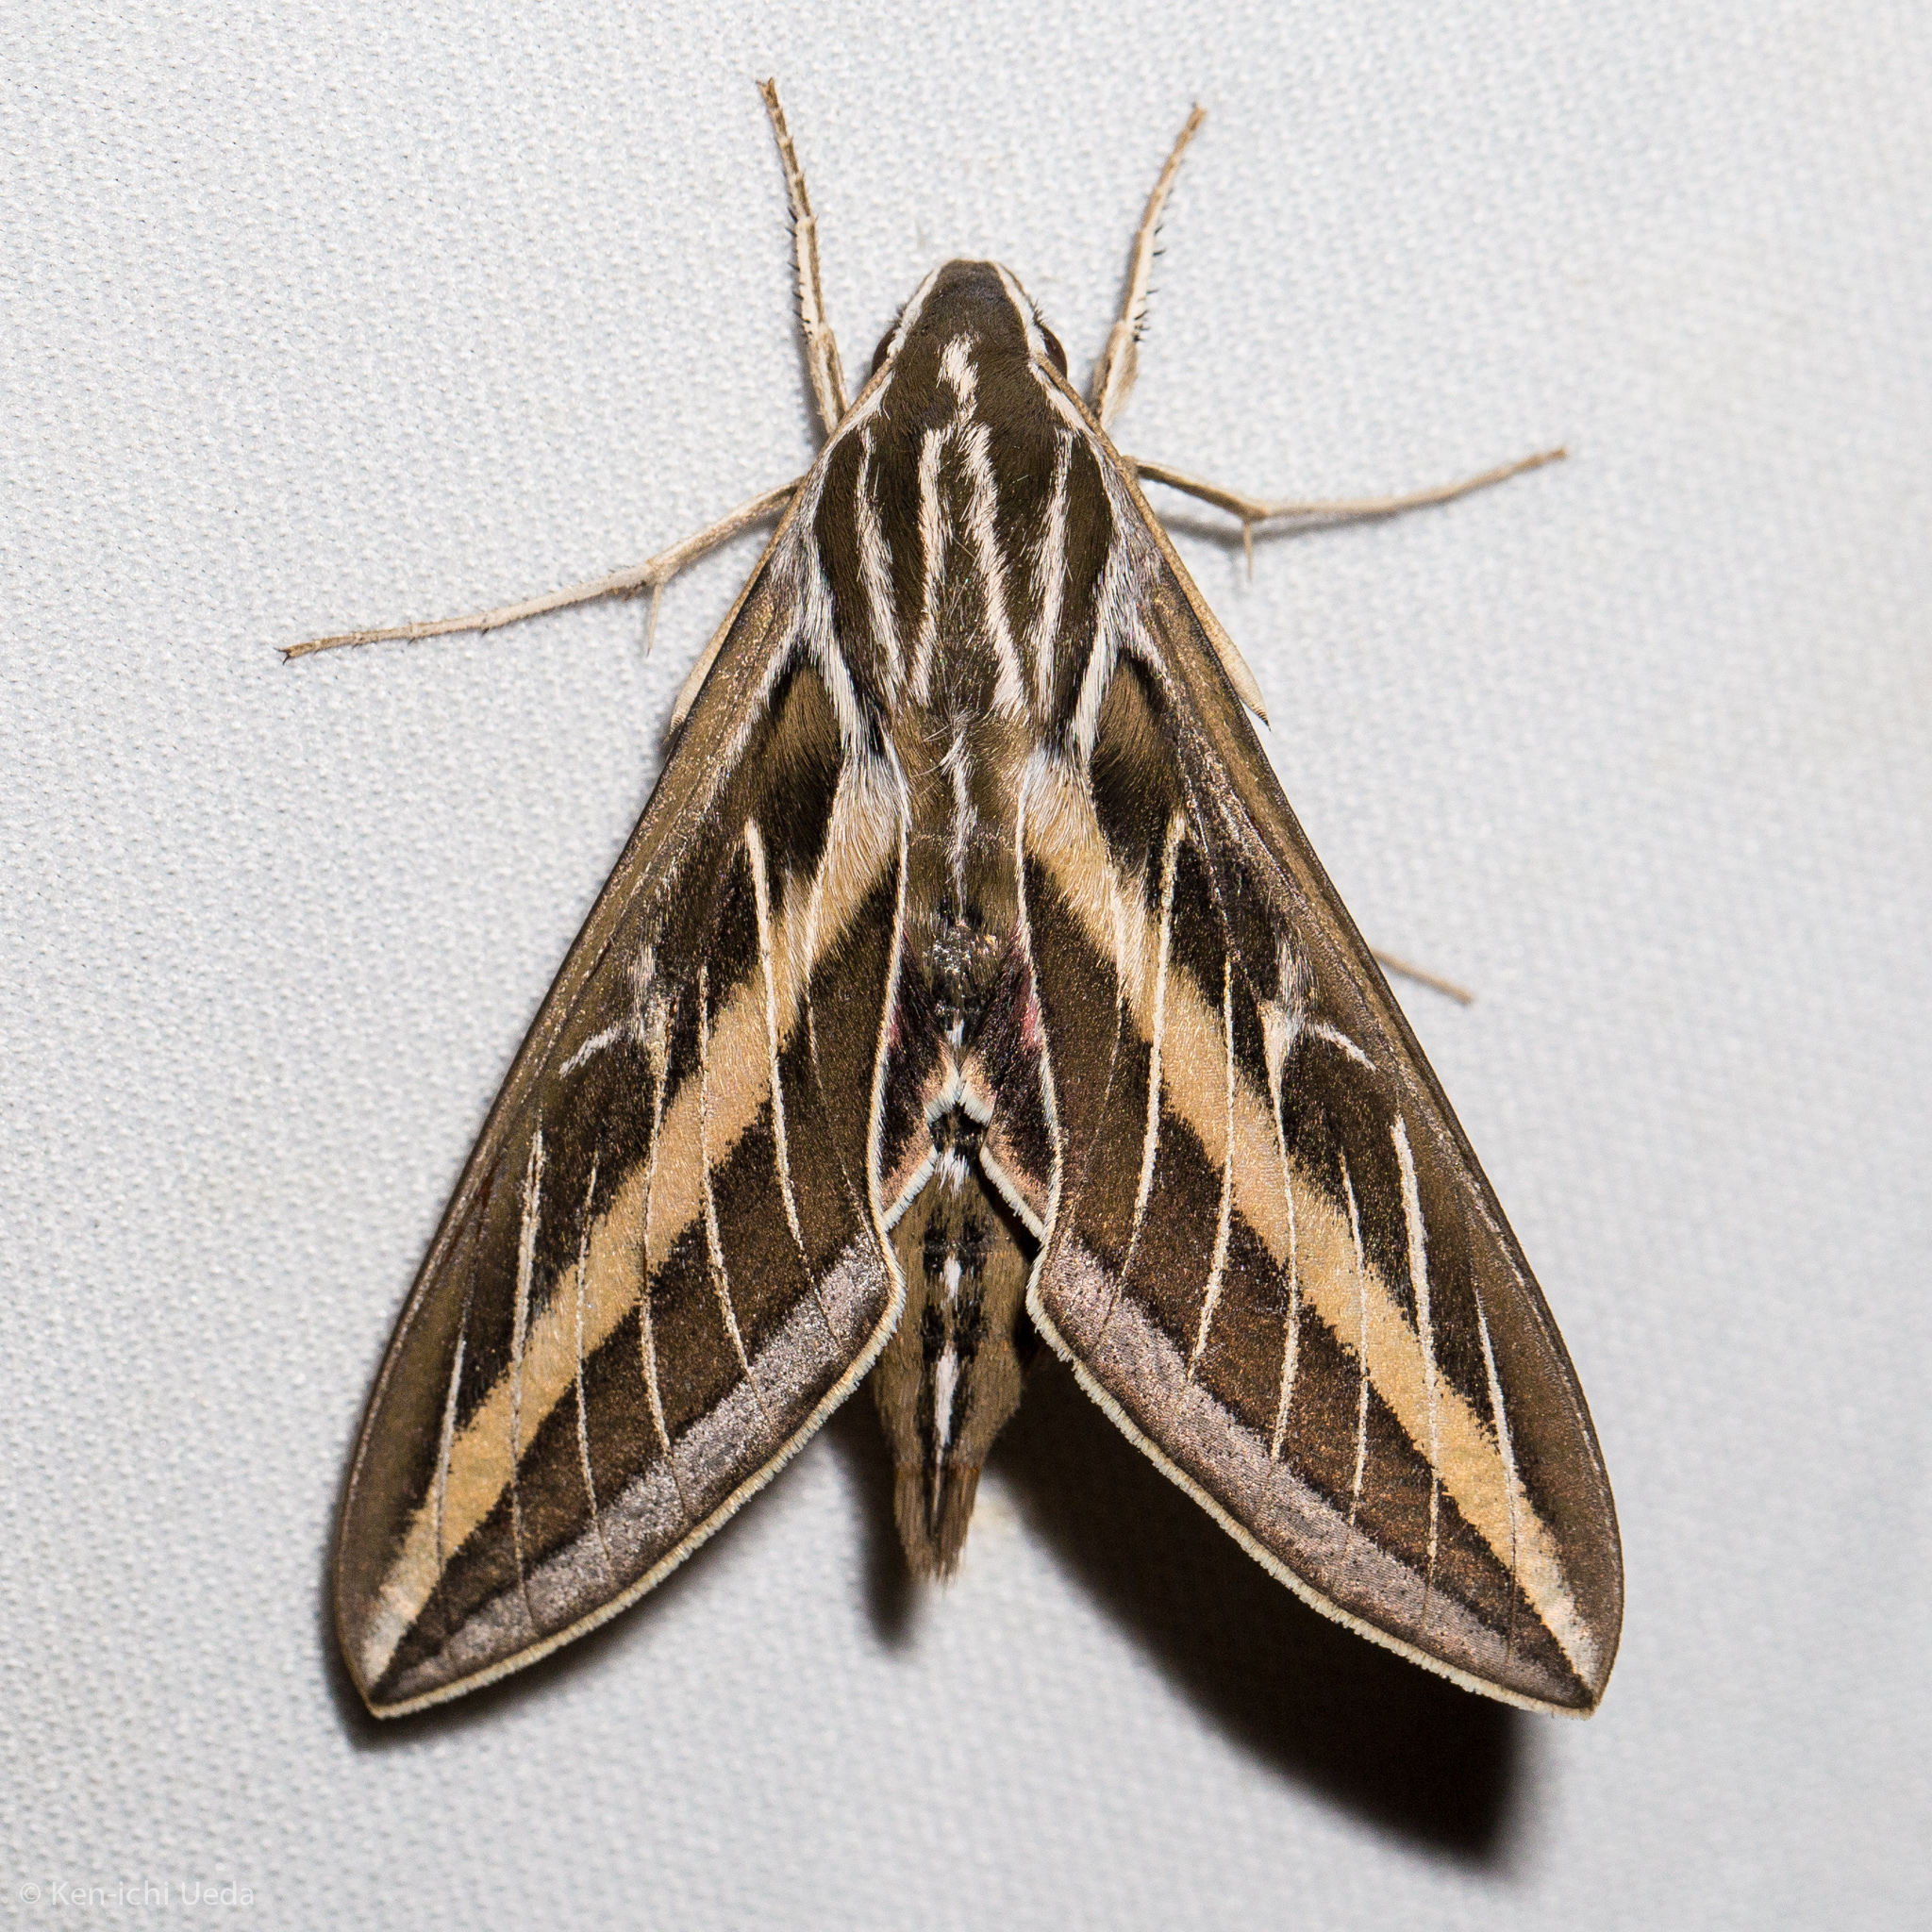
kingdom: Animalia
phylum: Arthropoda
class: Insecta
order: Lepidoptera
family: Sphingidae
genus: Hyles
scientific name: Hyles lineata
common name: White-lined sphinx
